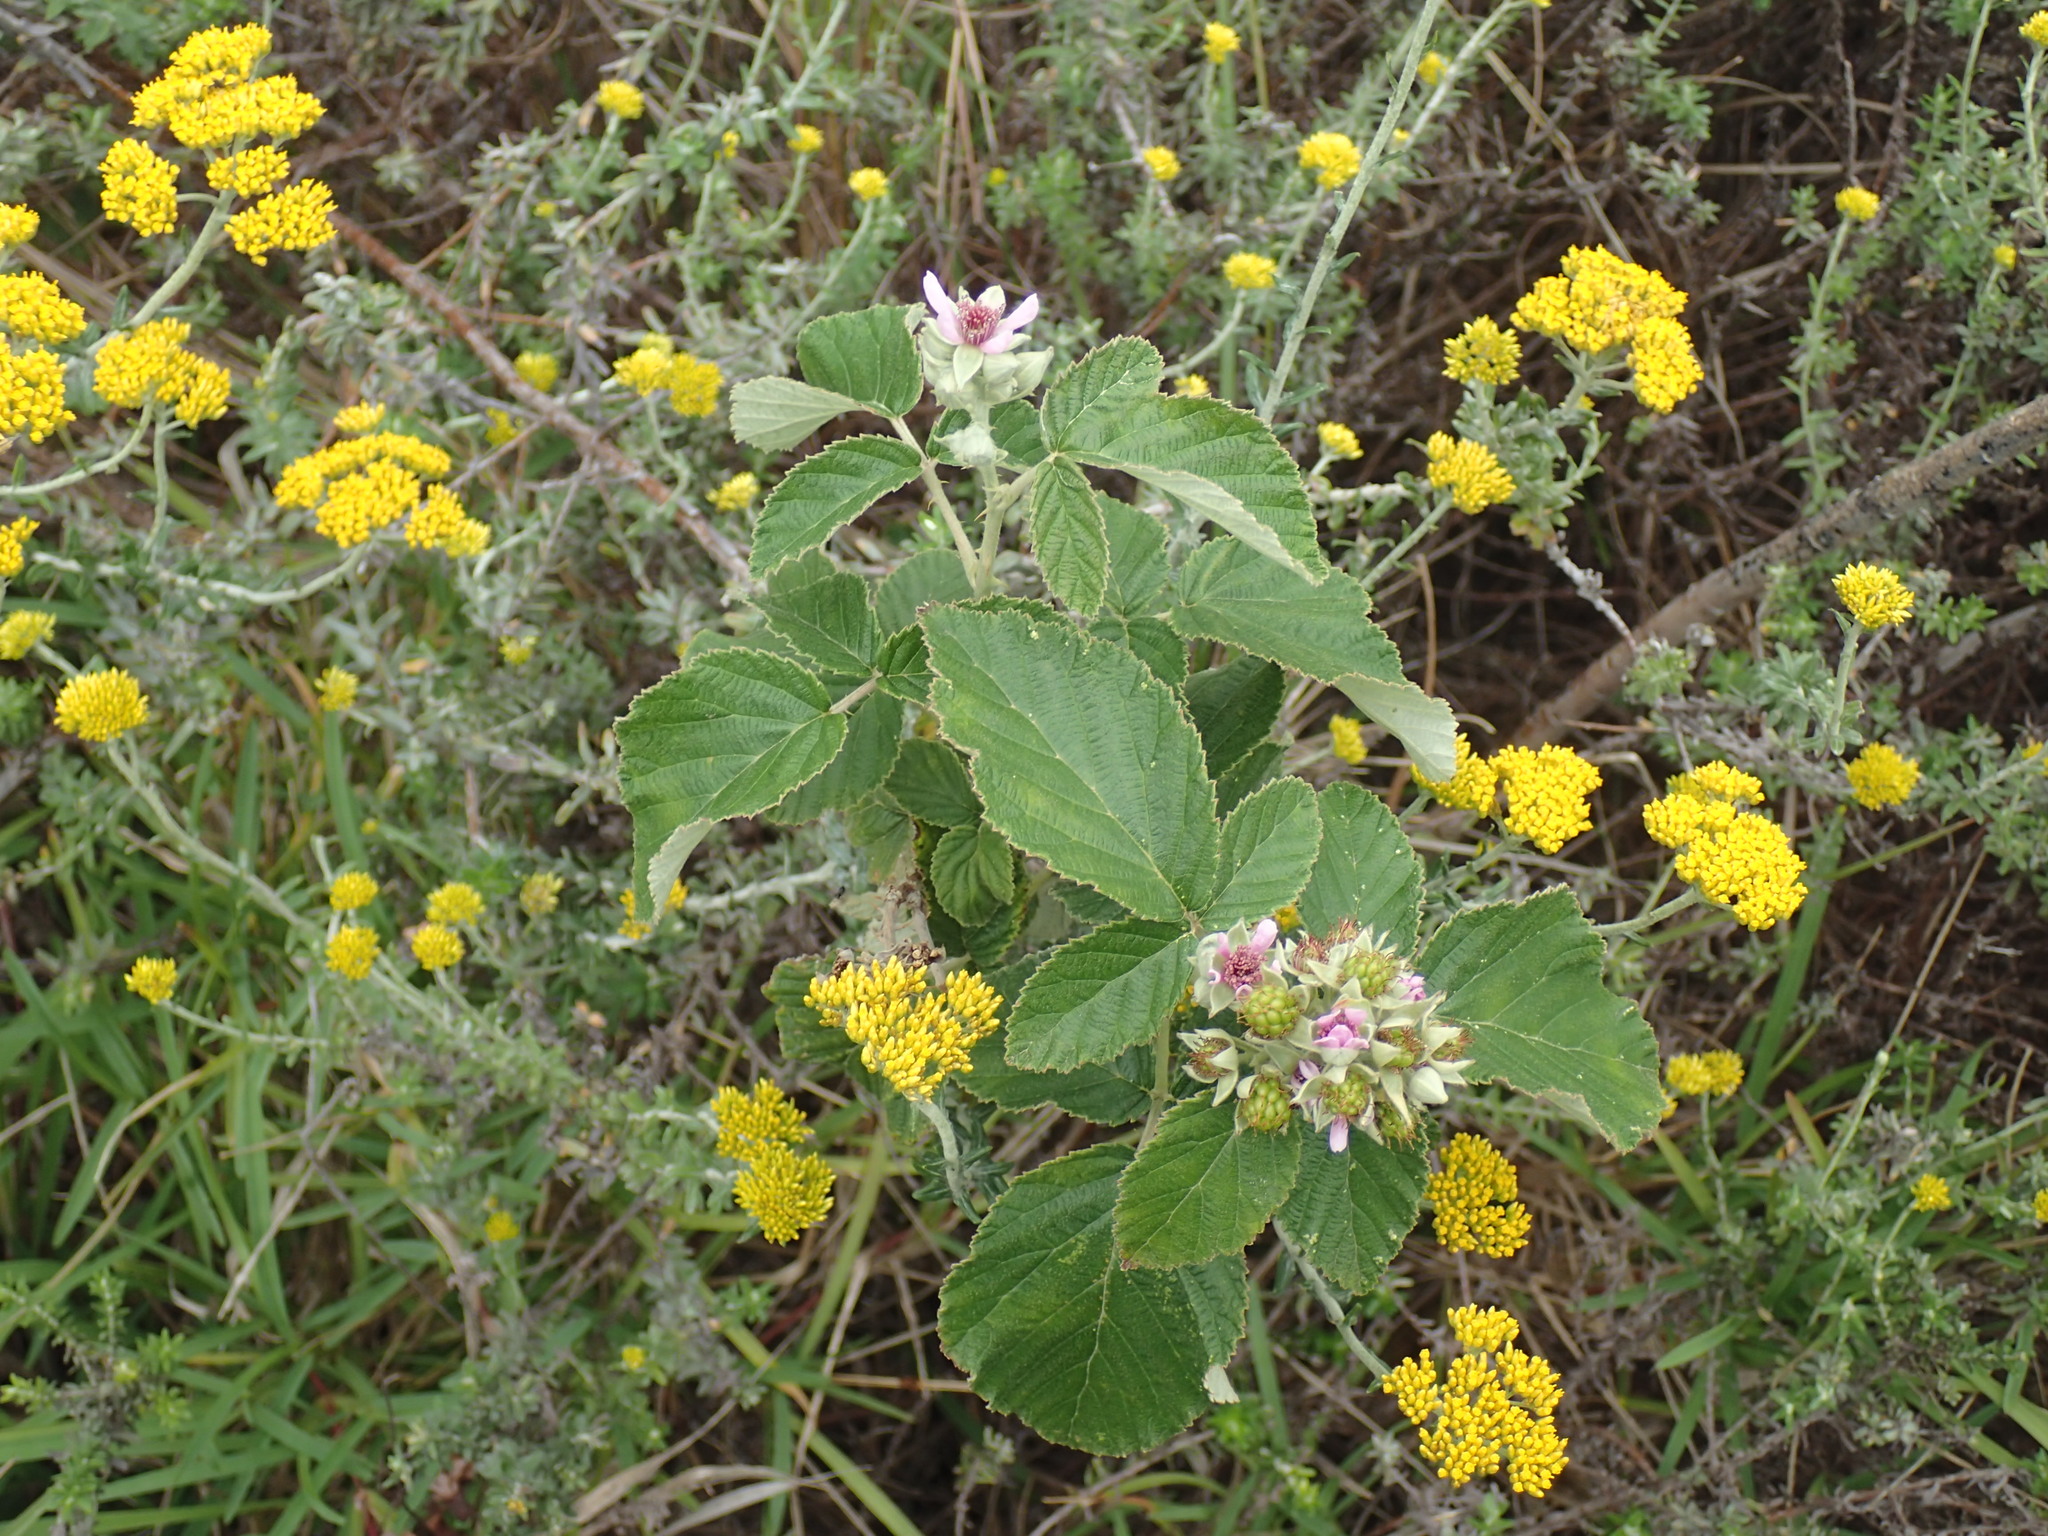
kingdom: Plantae
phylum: Tracheophyta
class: Magnoliopsida
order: Rosales
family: Rosaceae
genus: Rubus
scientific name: Rubus rigidus
